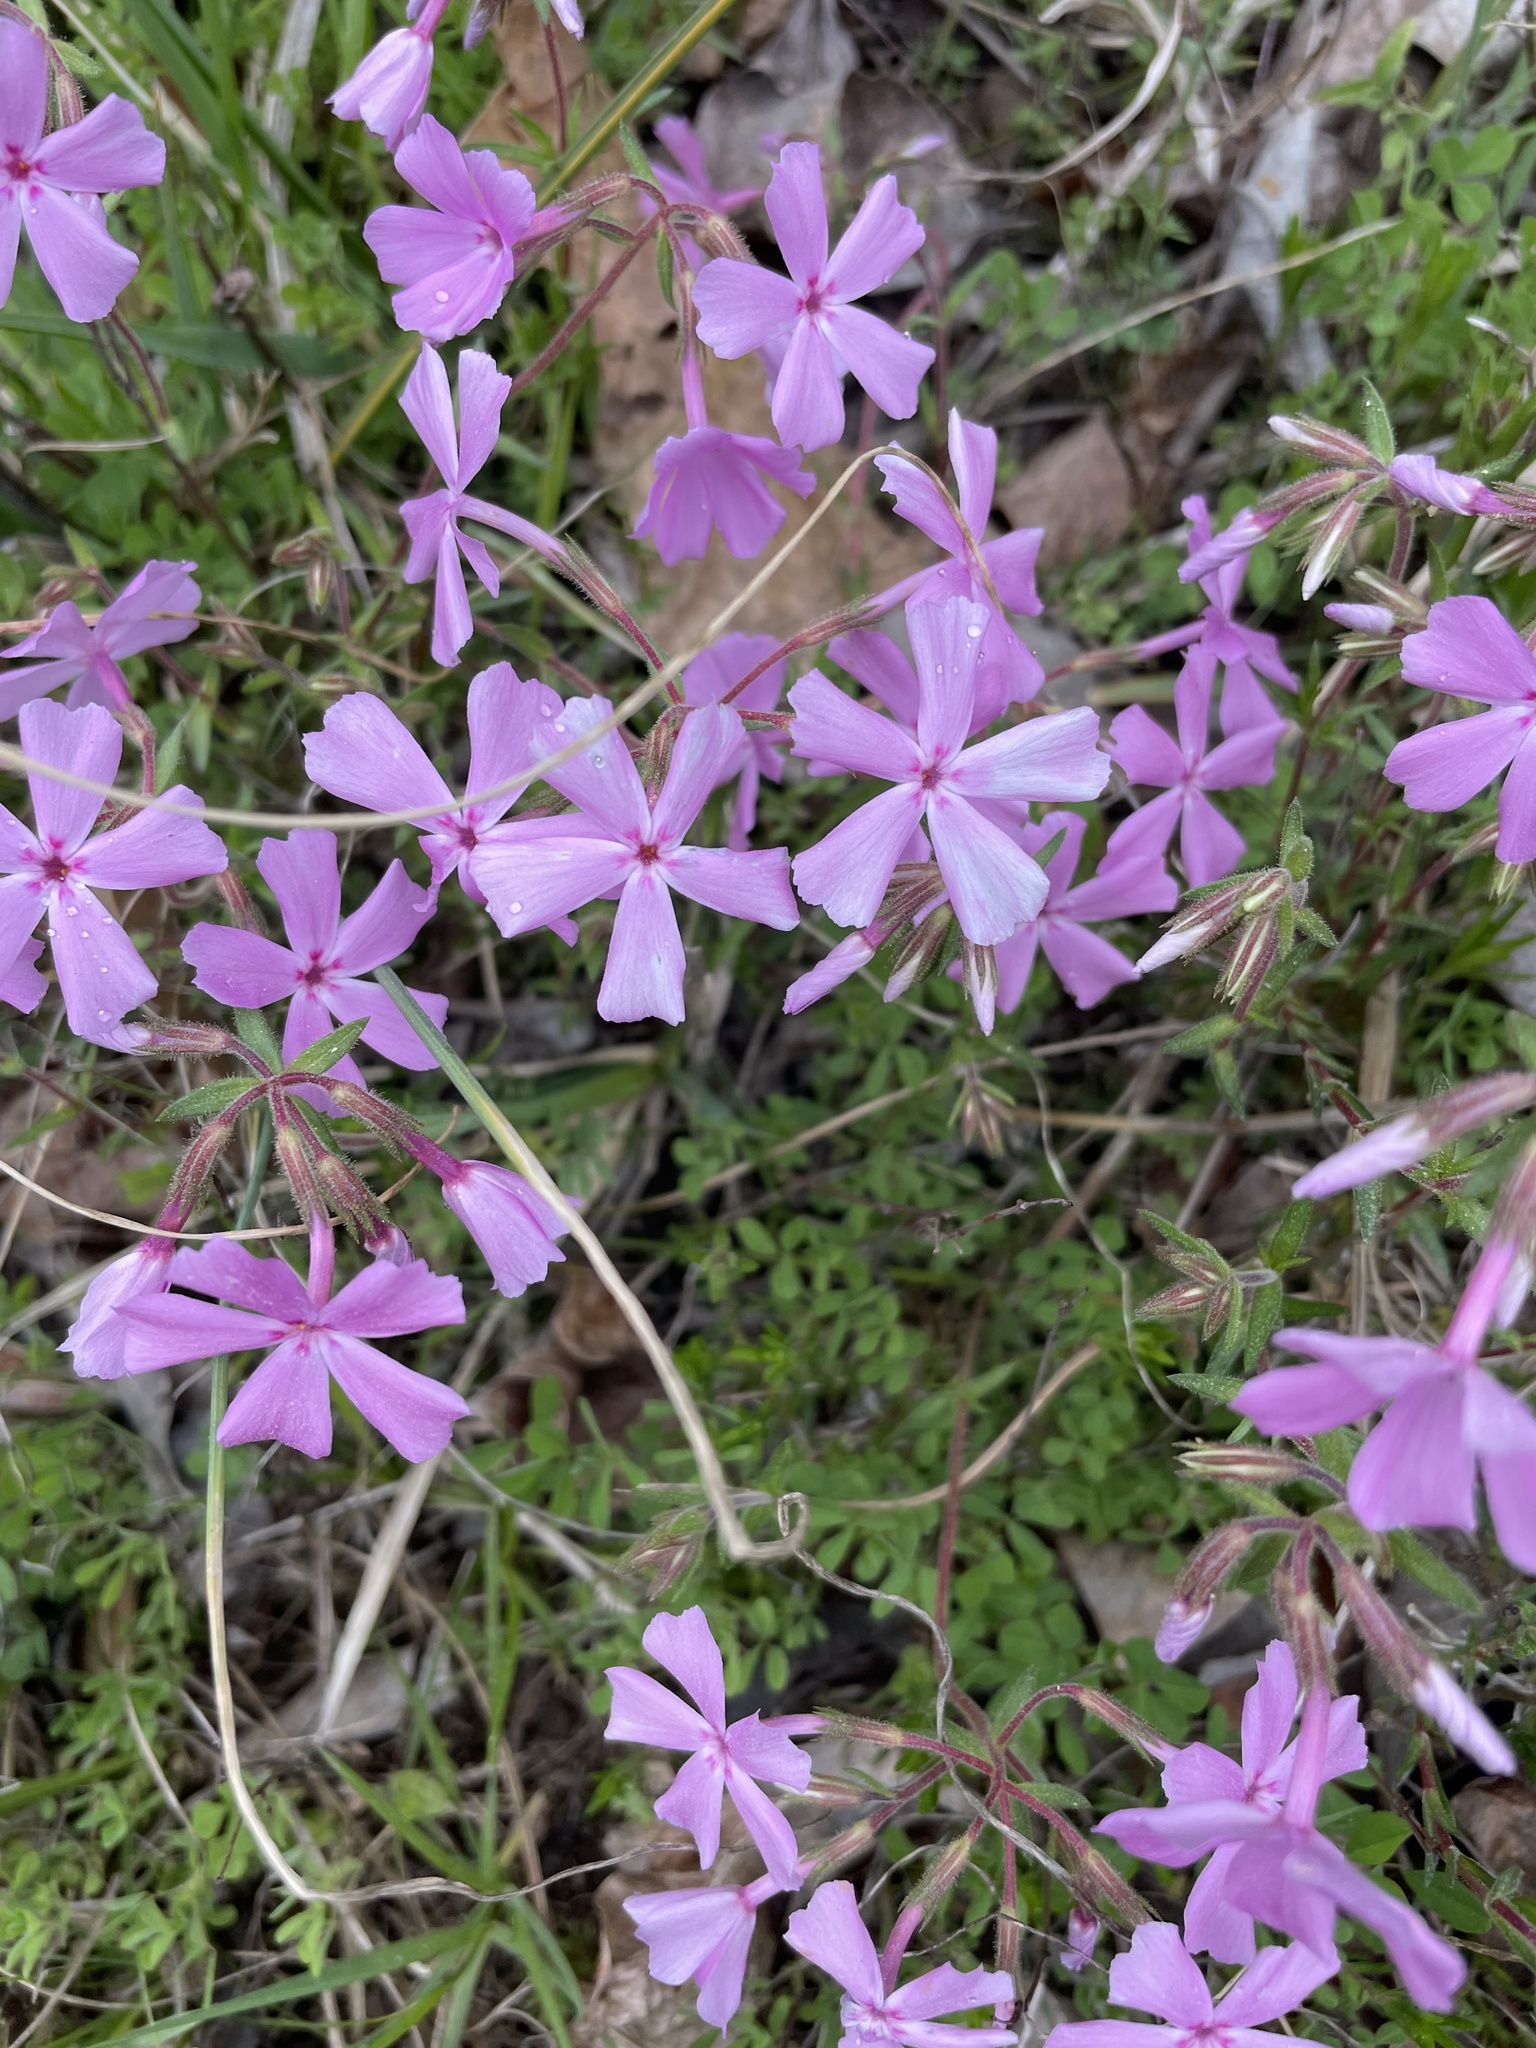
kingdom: Plantae
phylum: Tracheophyta
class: Magnoliopsida
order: Ericales
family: Polemoniaceae
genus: Phlox
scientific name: Phlox nivalis
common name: Trailing phlox
